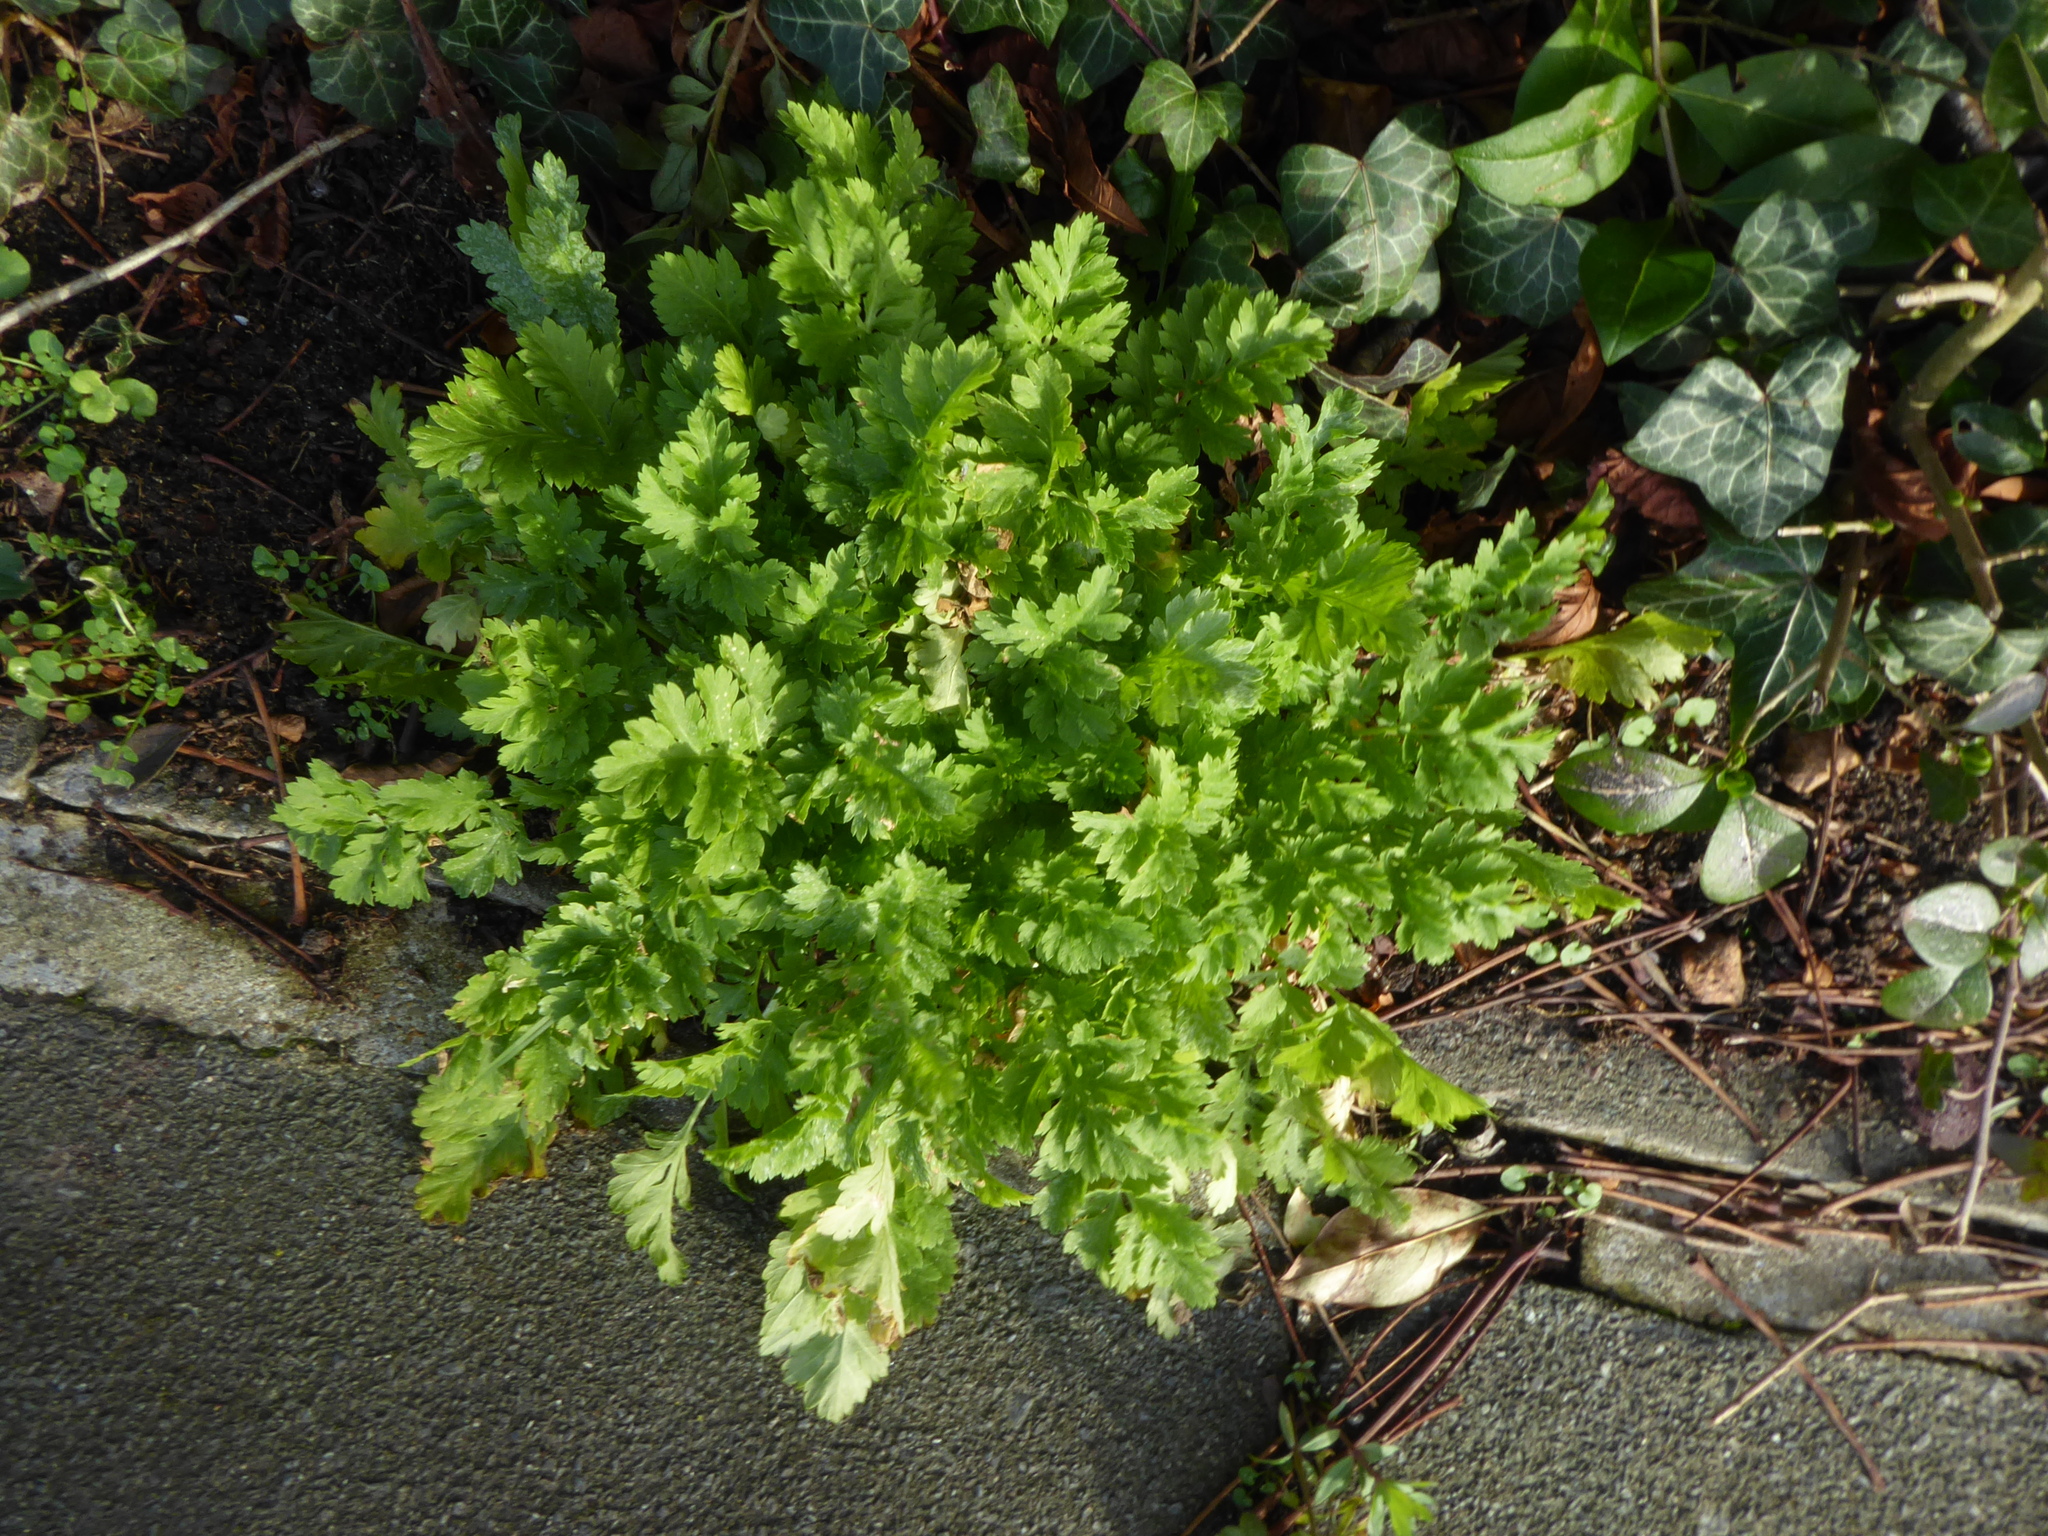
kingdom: Plantae
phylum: Tracheophyta
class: Magnoliopsida
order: Asterales
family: Asteraceae
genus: Tanacetum
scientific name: Tanacetum parthenium
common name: Feverfew
